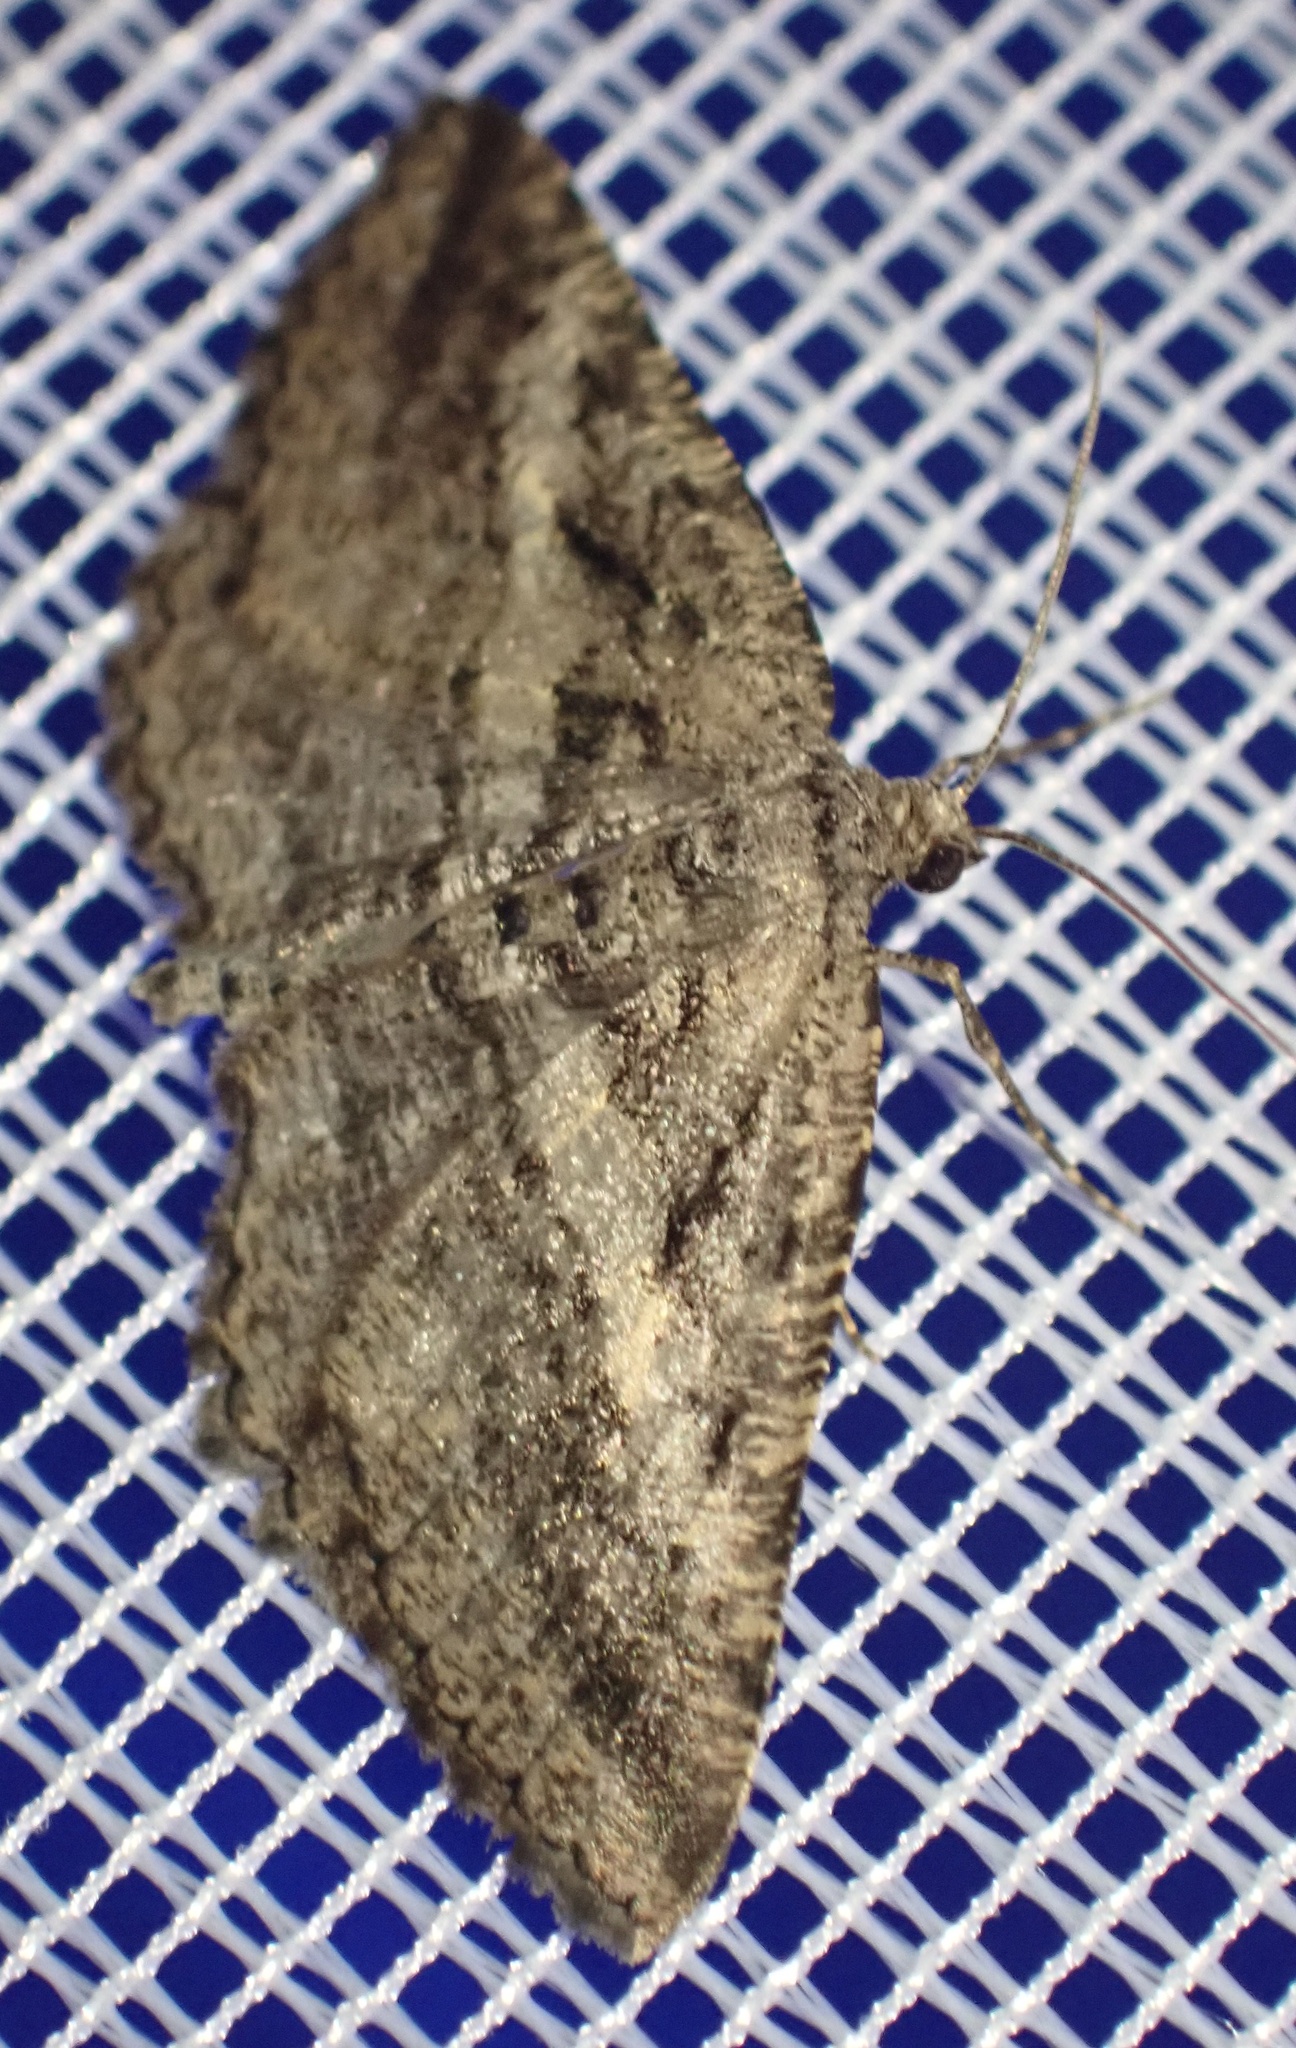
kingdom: Animalia
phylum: Arthropoda
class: Insecta
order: Lepidoptera
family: Geometridae
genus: Rhoptria
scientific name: Rhoptria asperaria
